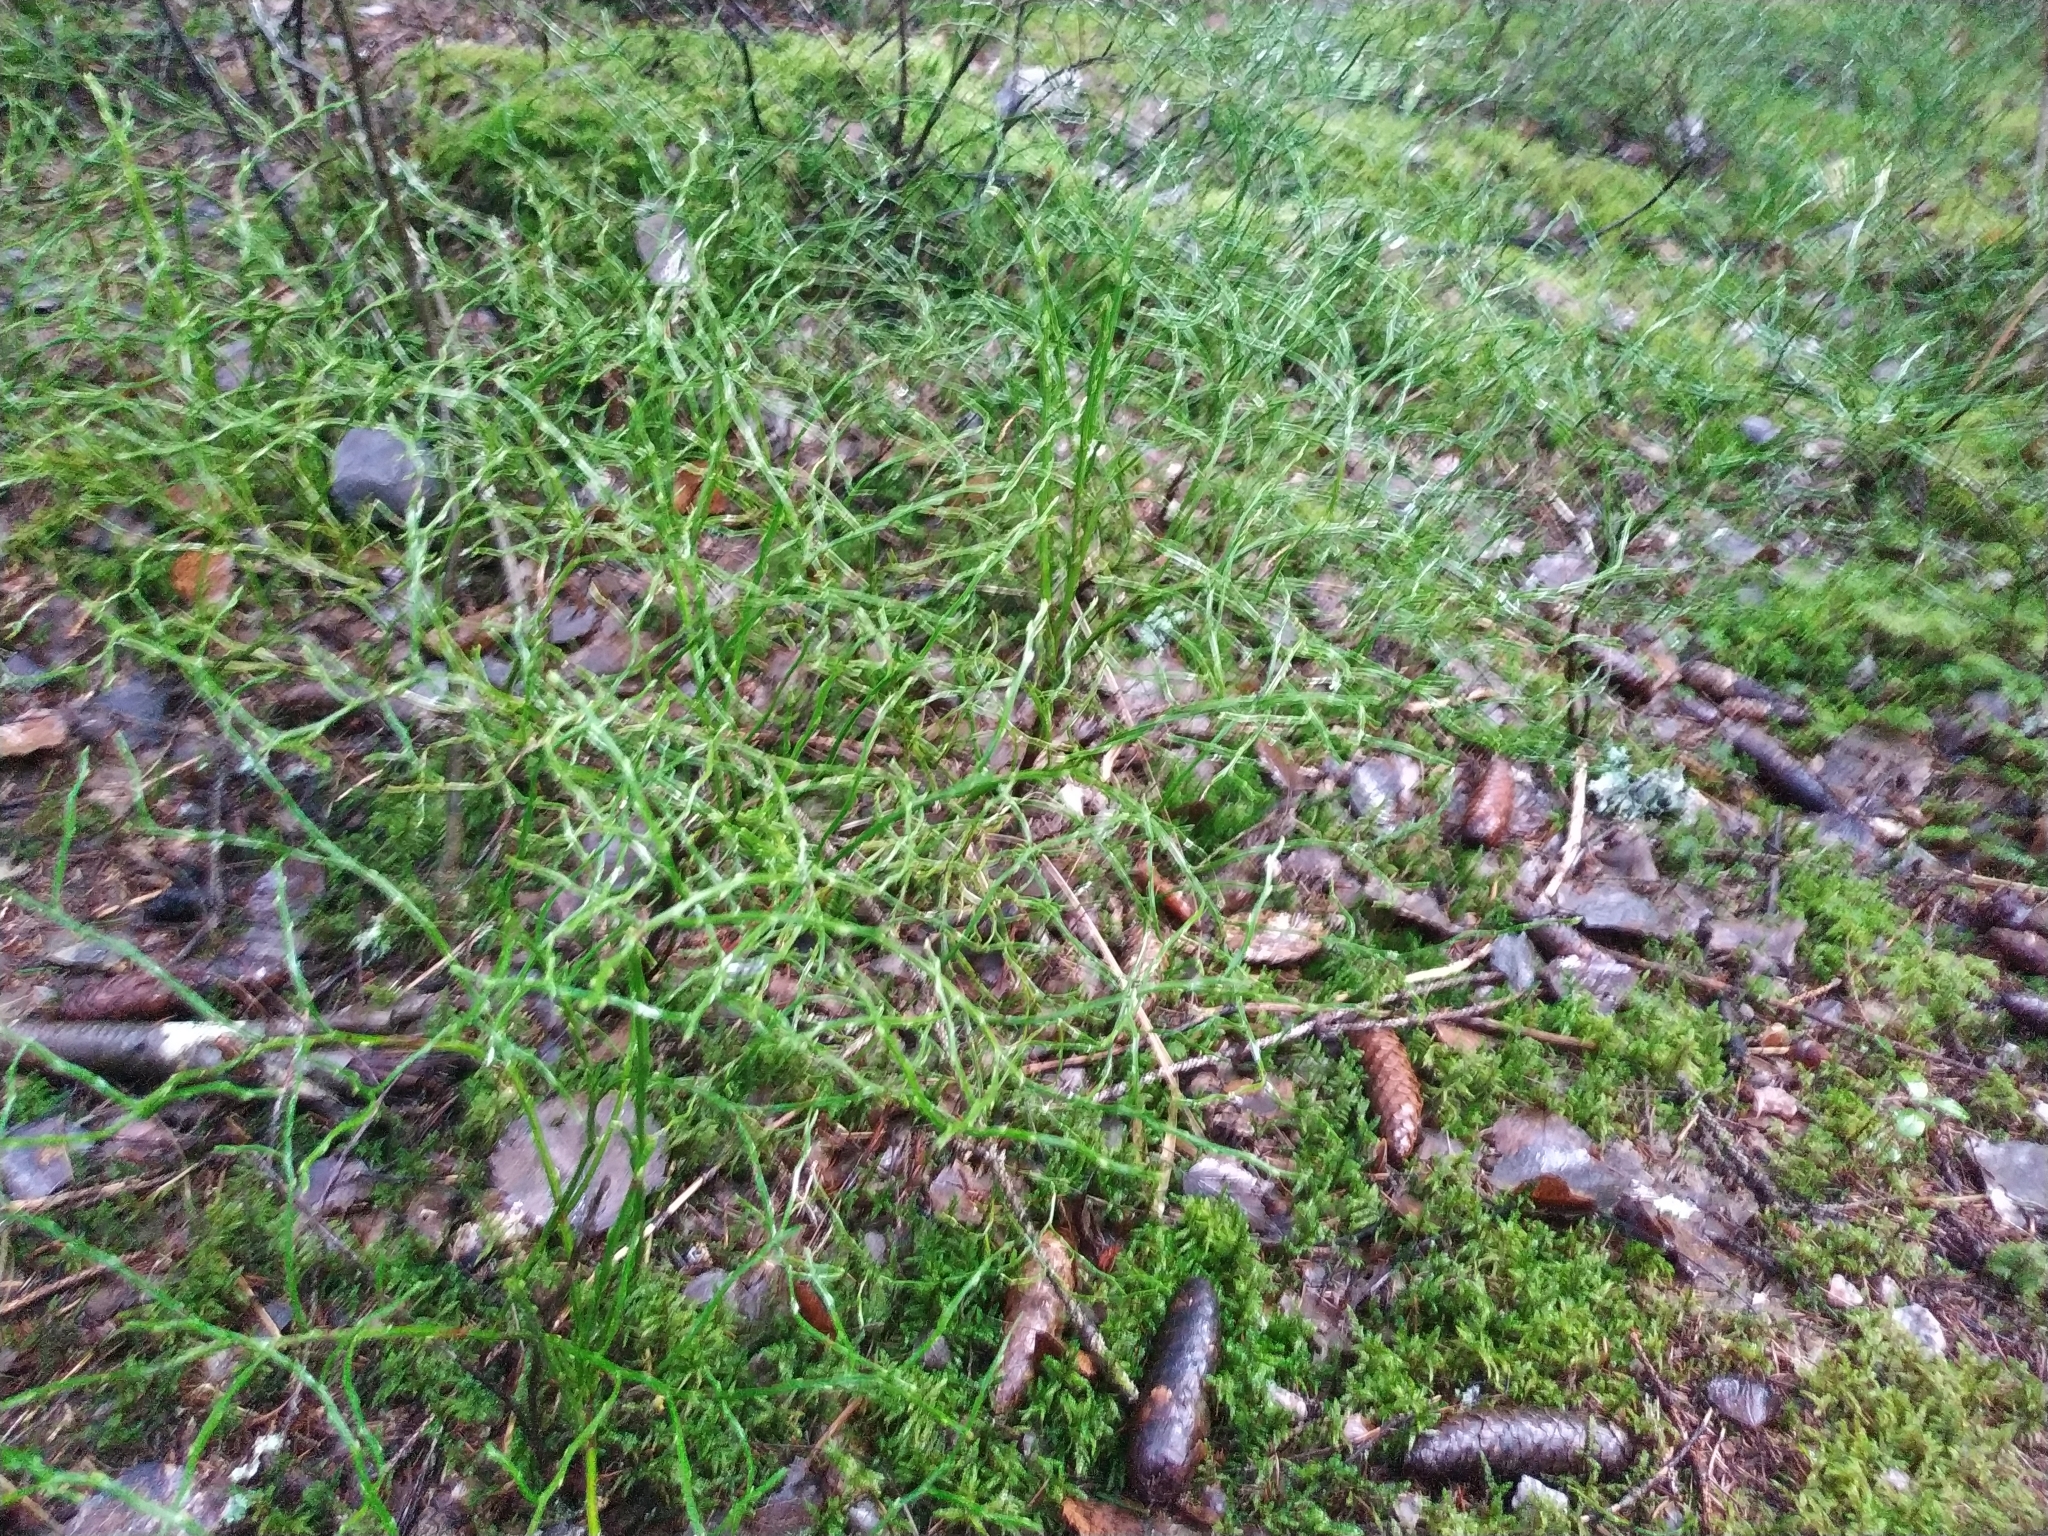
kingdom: Plantae
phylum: Tracheophyta
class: Magnoliopsida
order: Ericales
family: Ericaceae
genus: Vaccinium
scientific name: Vaccinium myrtillus
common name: Bilberry
